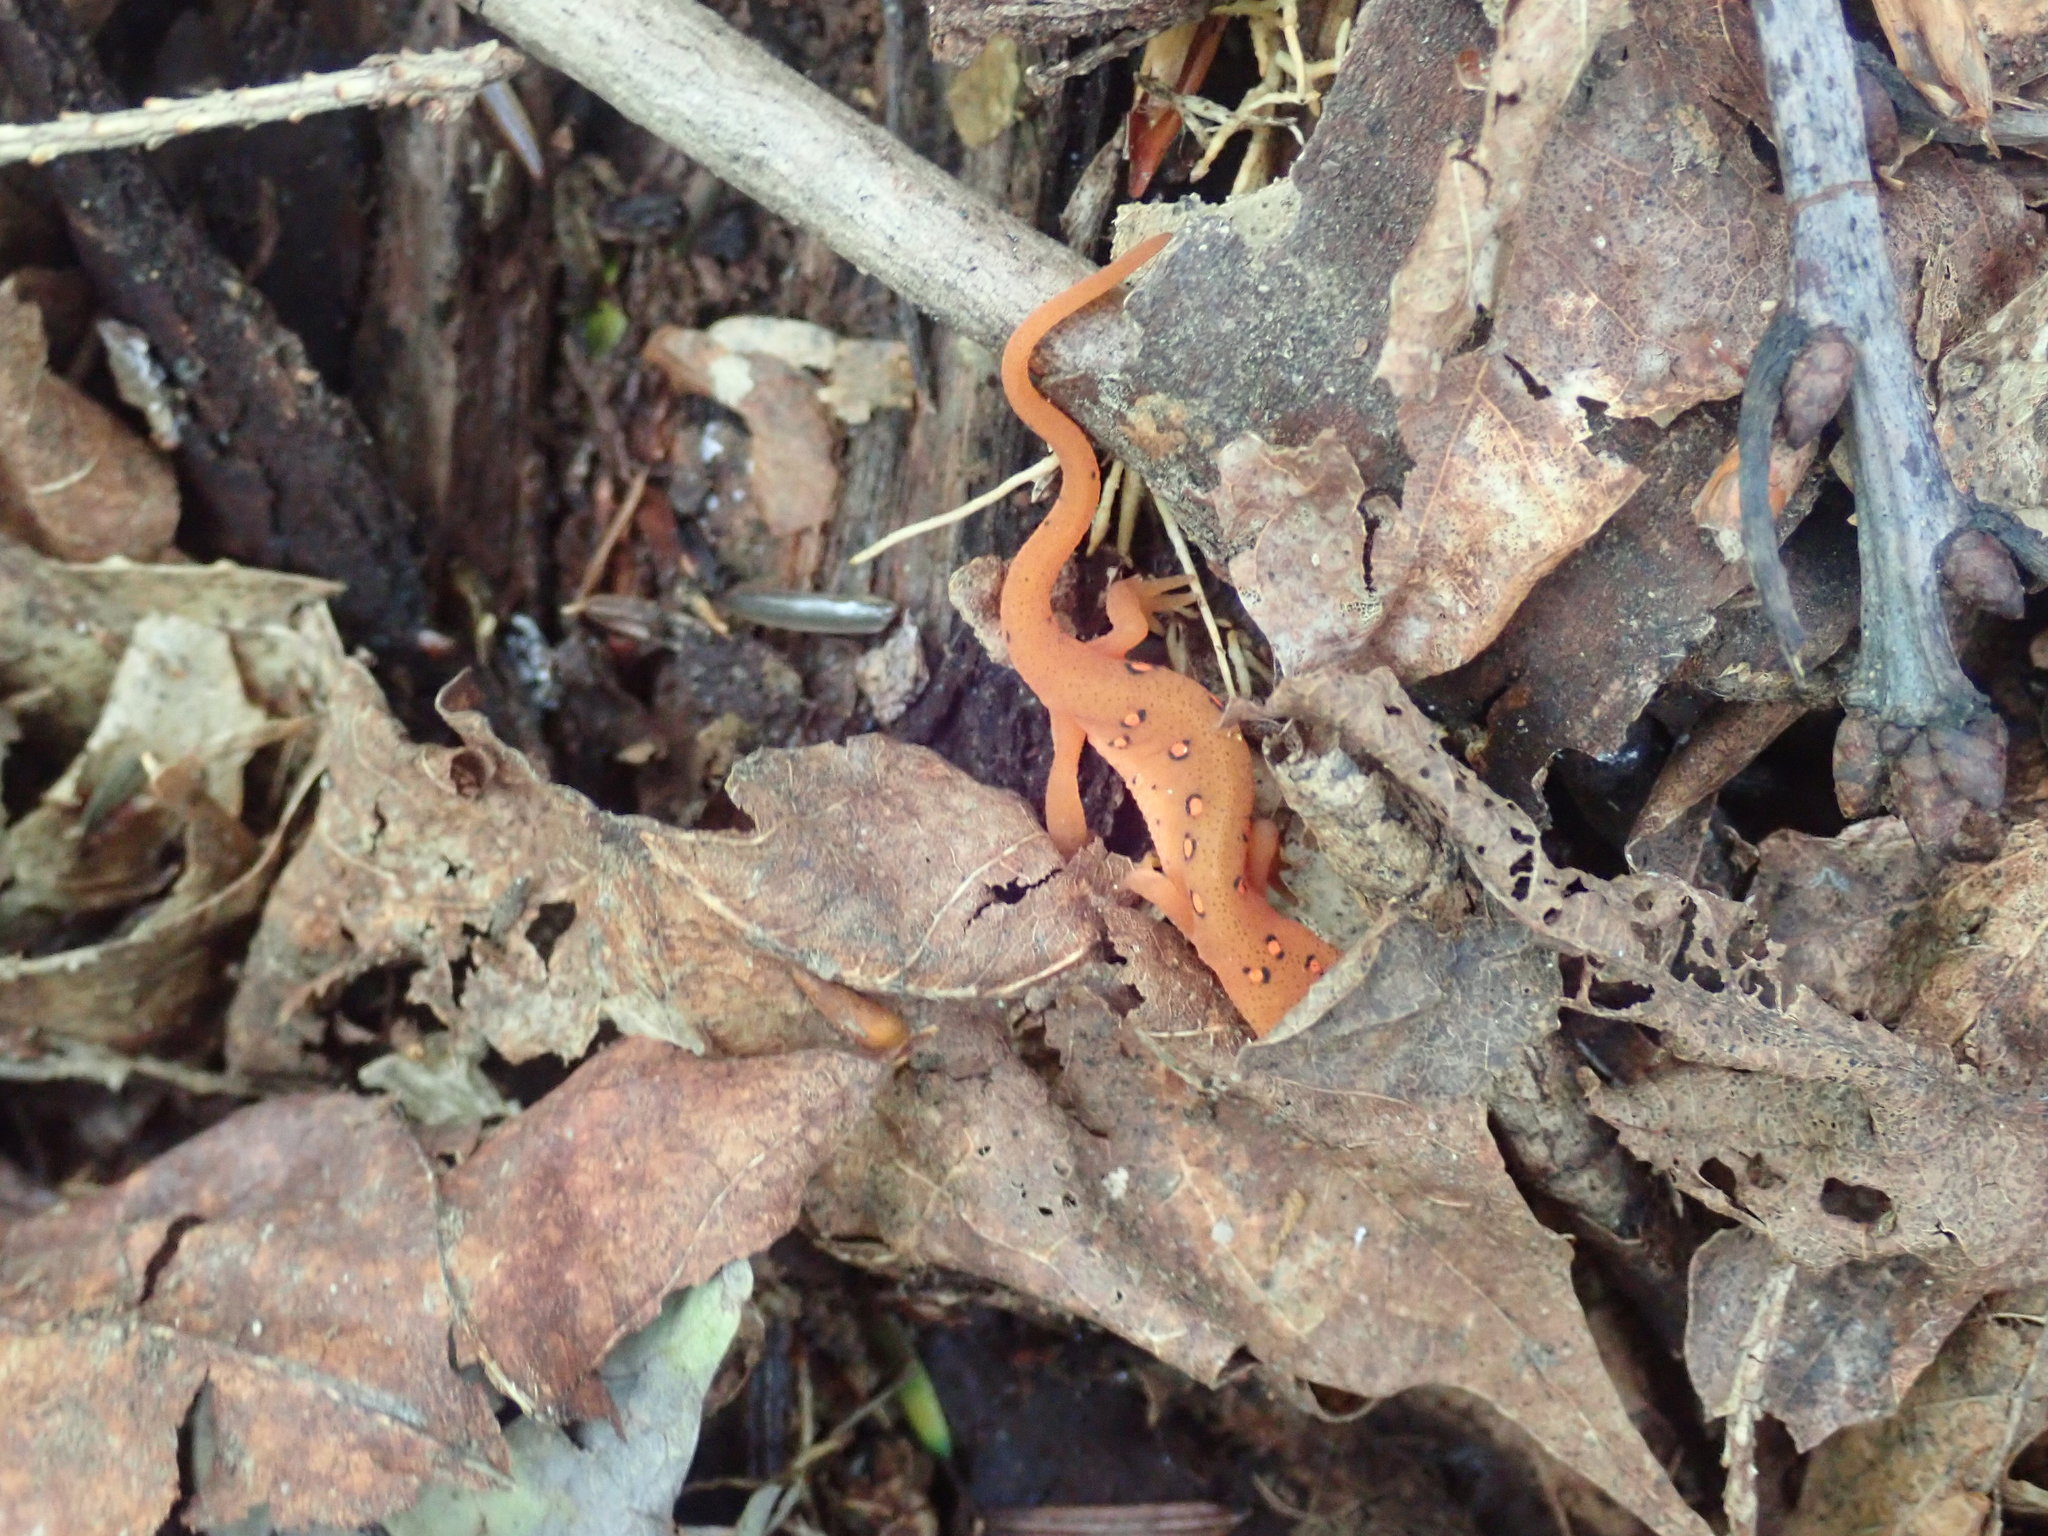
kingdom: Animalia
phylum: Chordata
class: Amphibia
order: Caudata
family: Salamandridae
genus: Notophthalmus
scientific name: Notophthalmus viridescens
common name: Eastern newt
